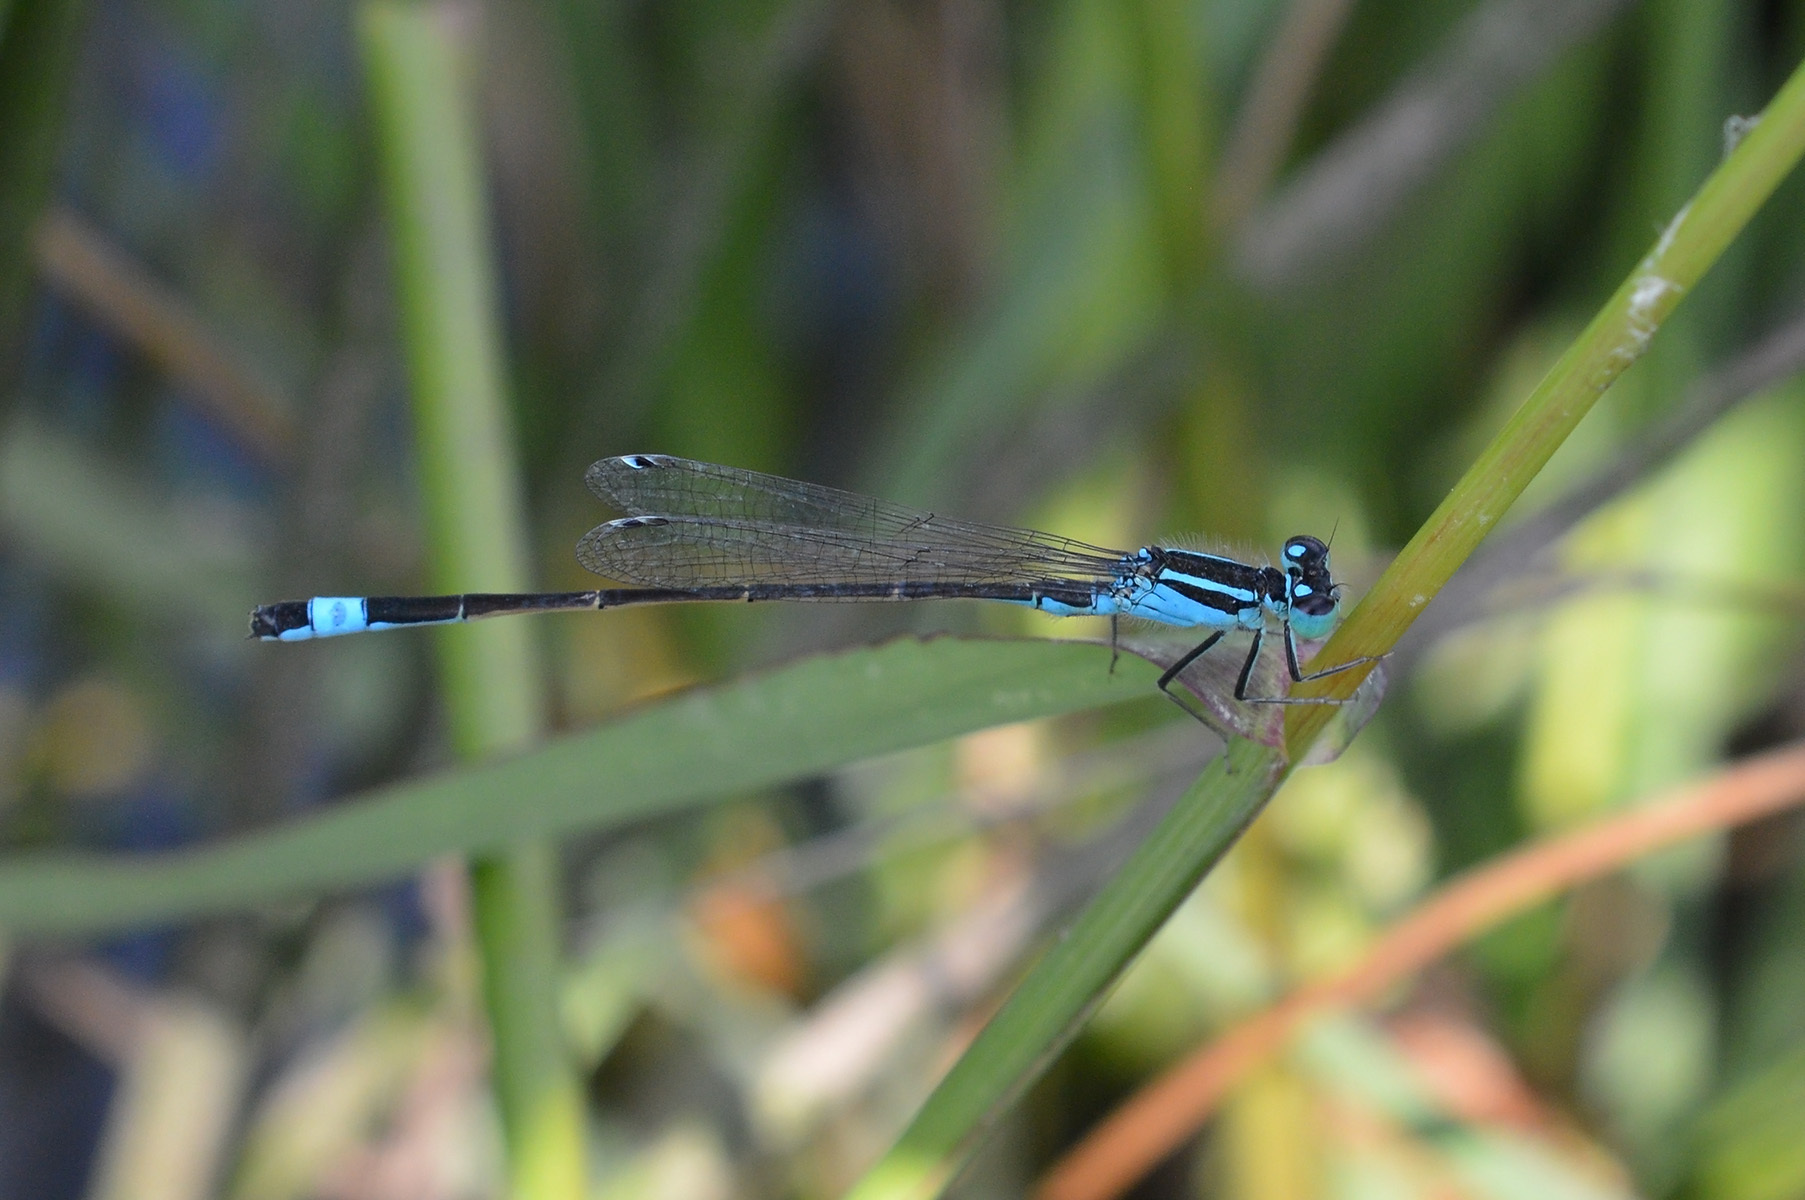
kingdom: Animalia
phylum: Arthropoda
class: Insecta
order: Odonata
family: Coenagrionidae
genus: Ischnura
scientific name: Ischnura elegans
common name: Blue-tailed damselfly
